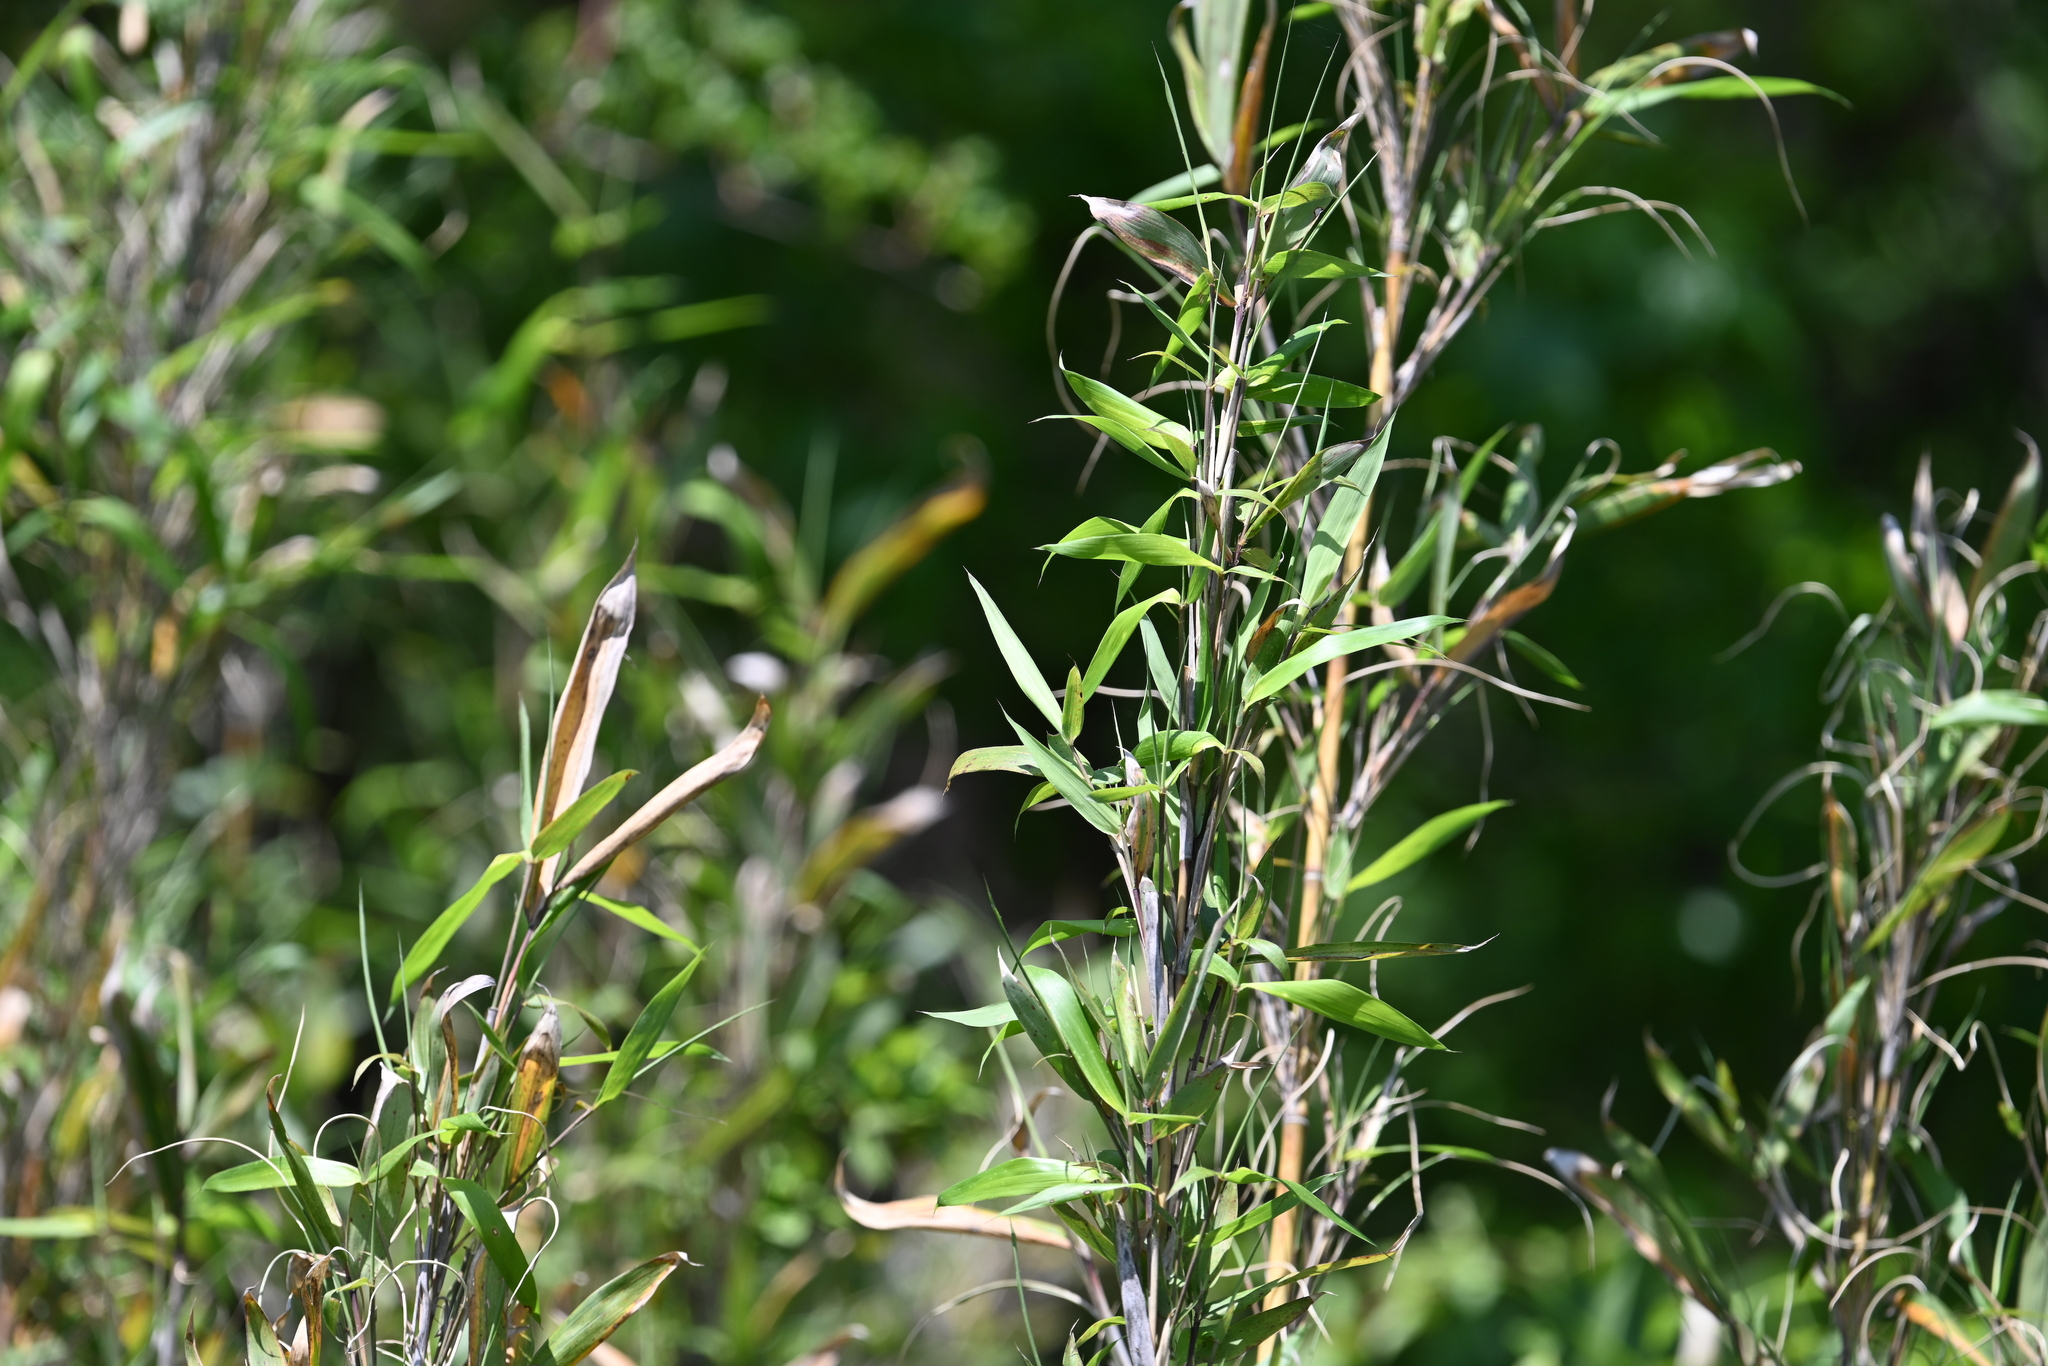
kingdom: Plantae
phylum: Tracheophyta
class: Liliopsida
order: Poales
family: Poaceae
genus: Arundinaria
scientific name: Arundinaria gigantea
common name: Giant cane
